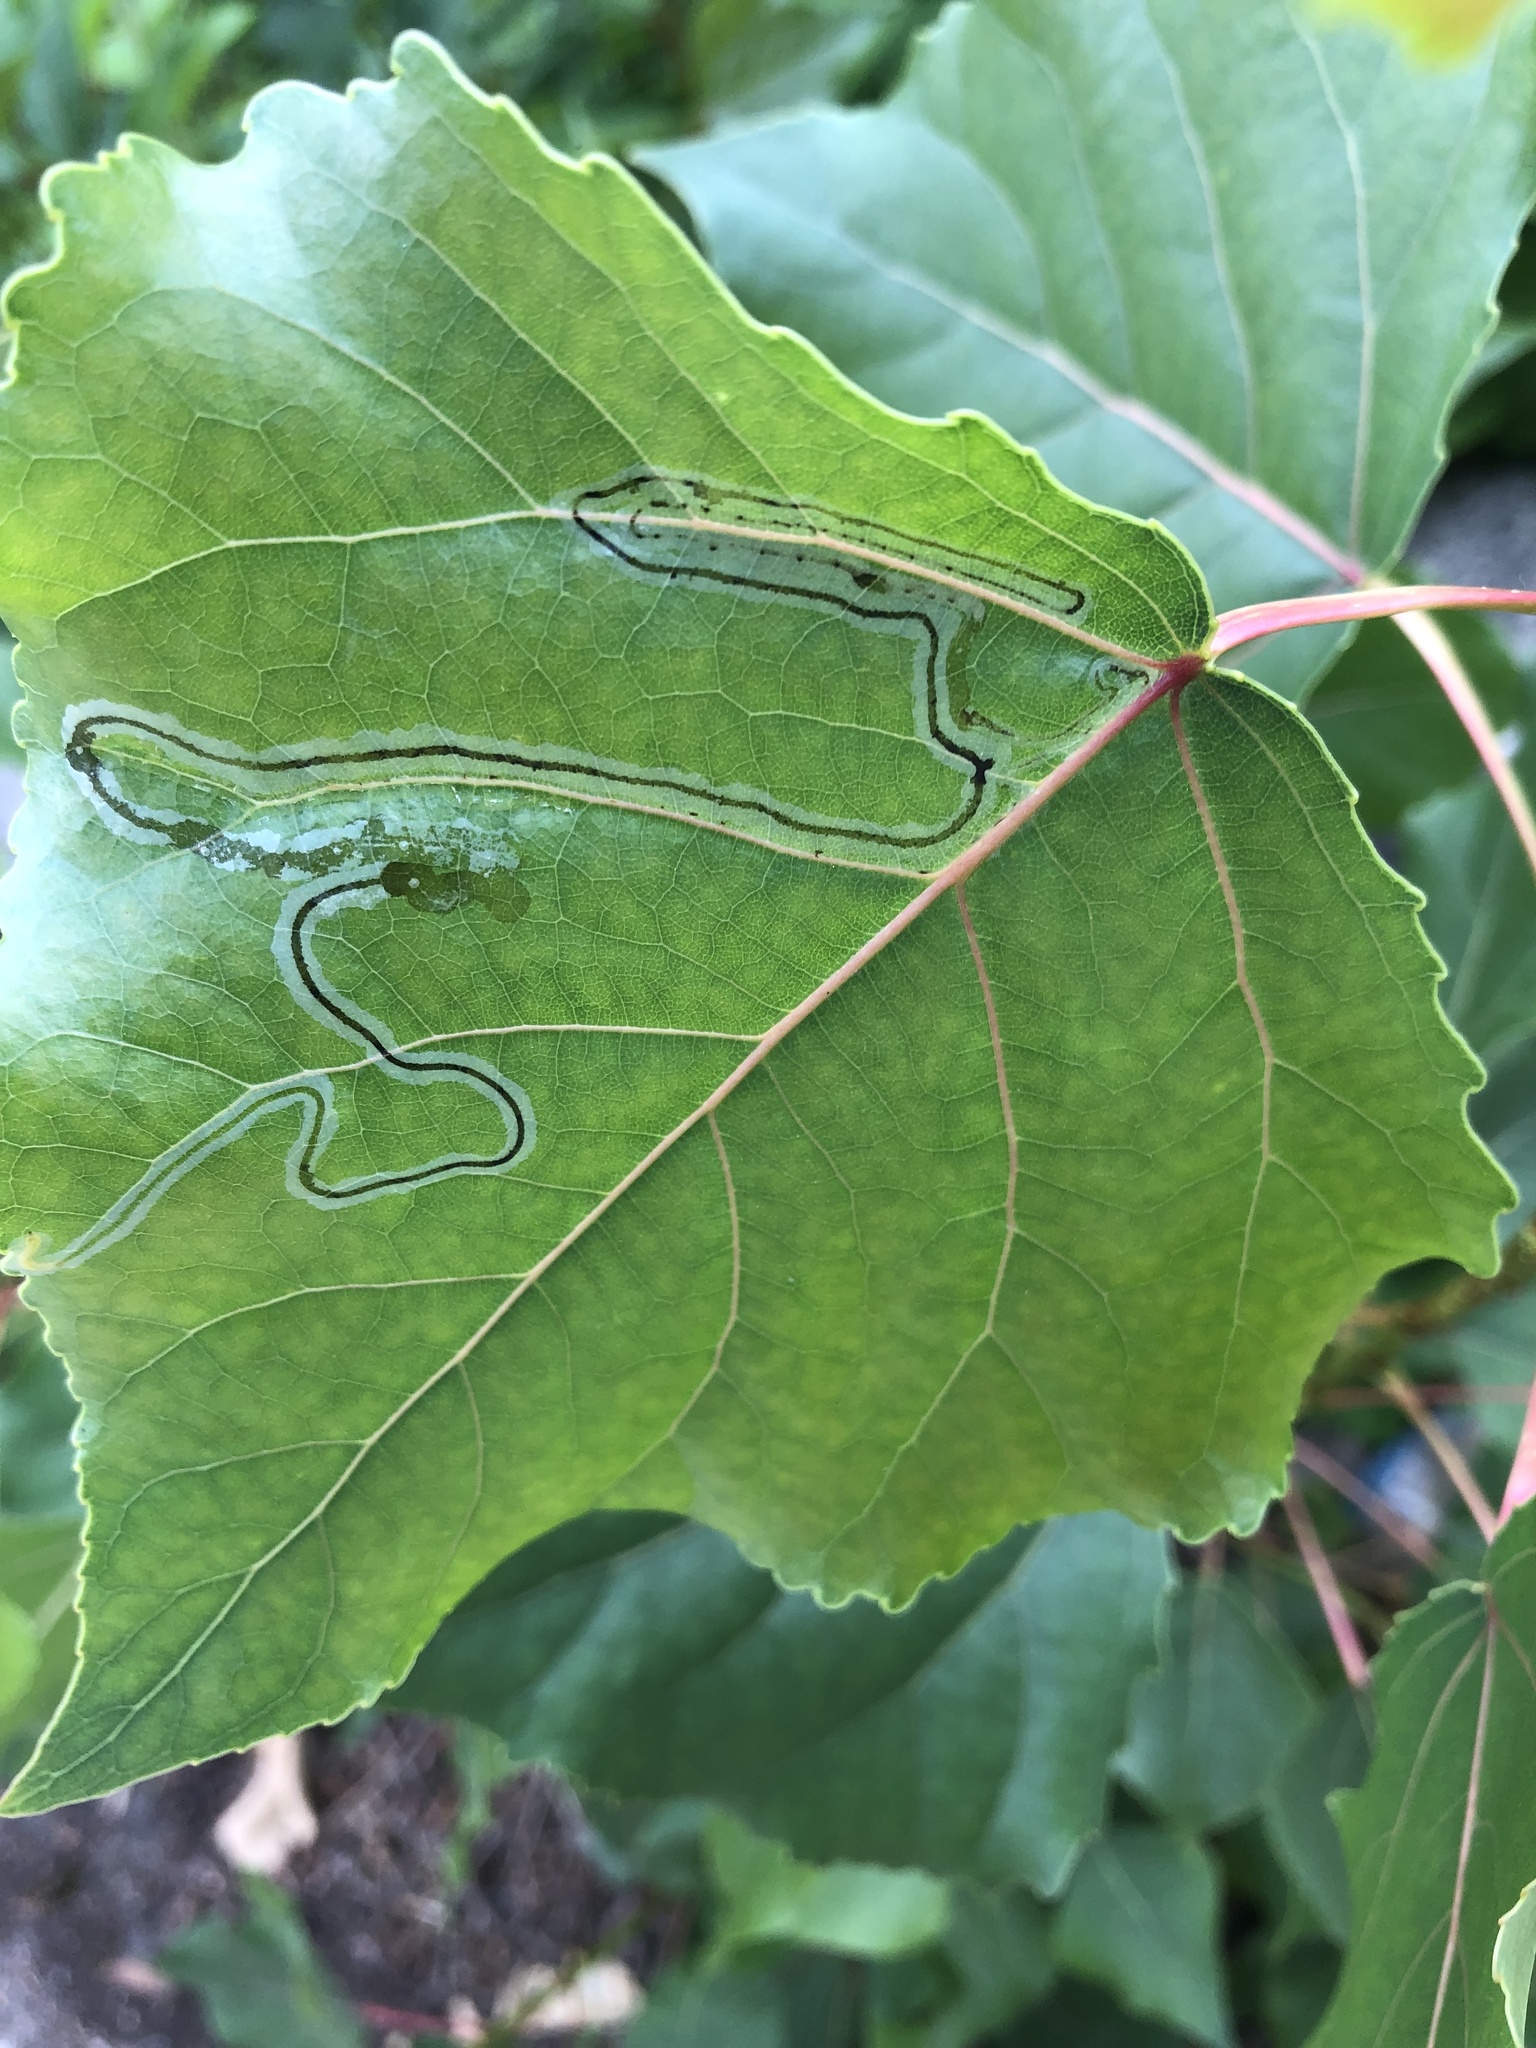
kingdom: Animalia
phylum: Arthropoda
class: Insecta
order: Lepidoptera
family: Gracillariidae
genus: Phyllocnistis
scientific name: Phyllocnistis populiella
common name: Aspen serpentine leafminer moth
